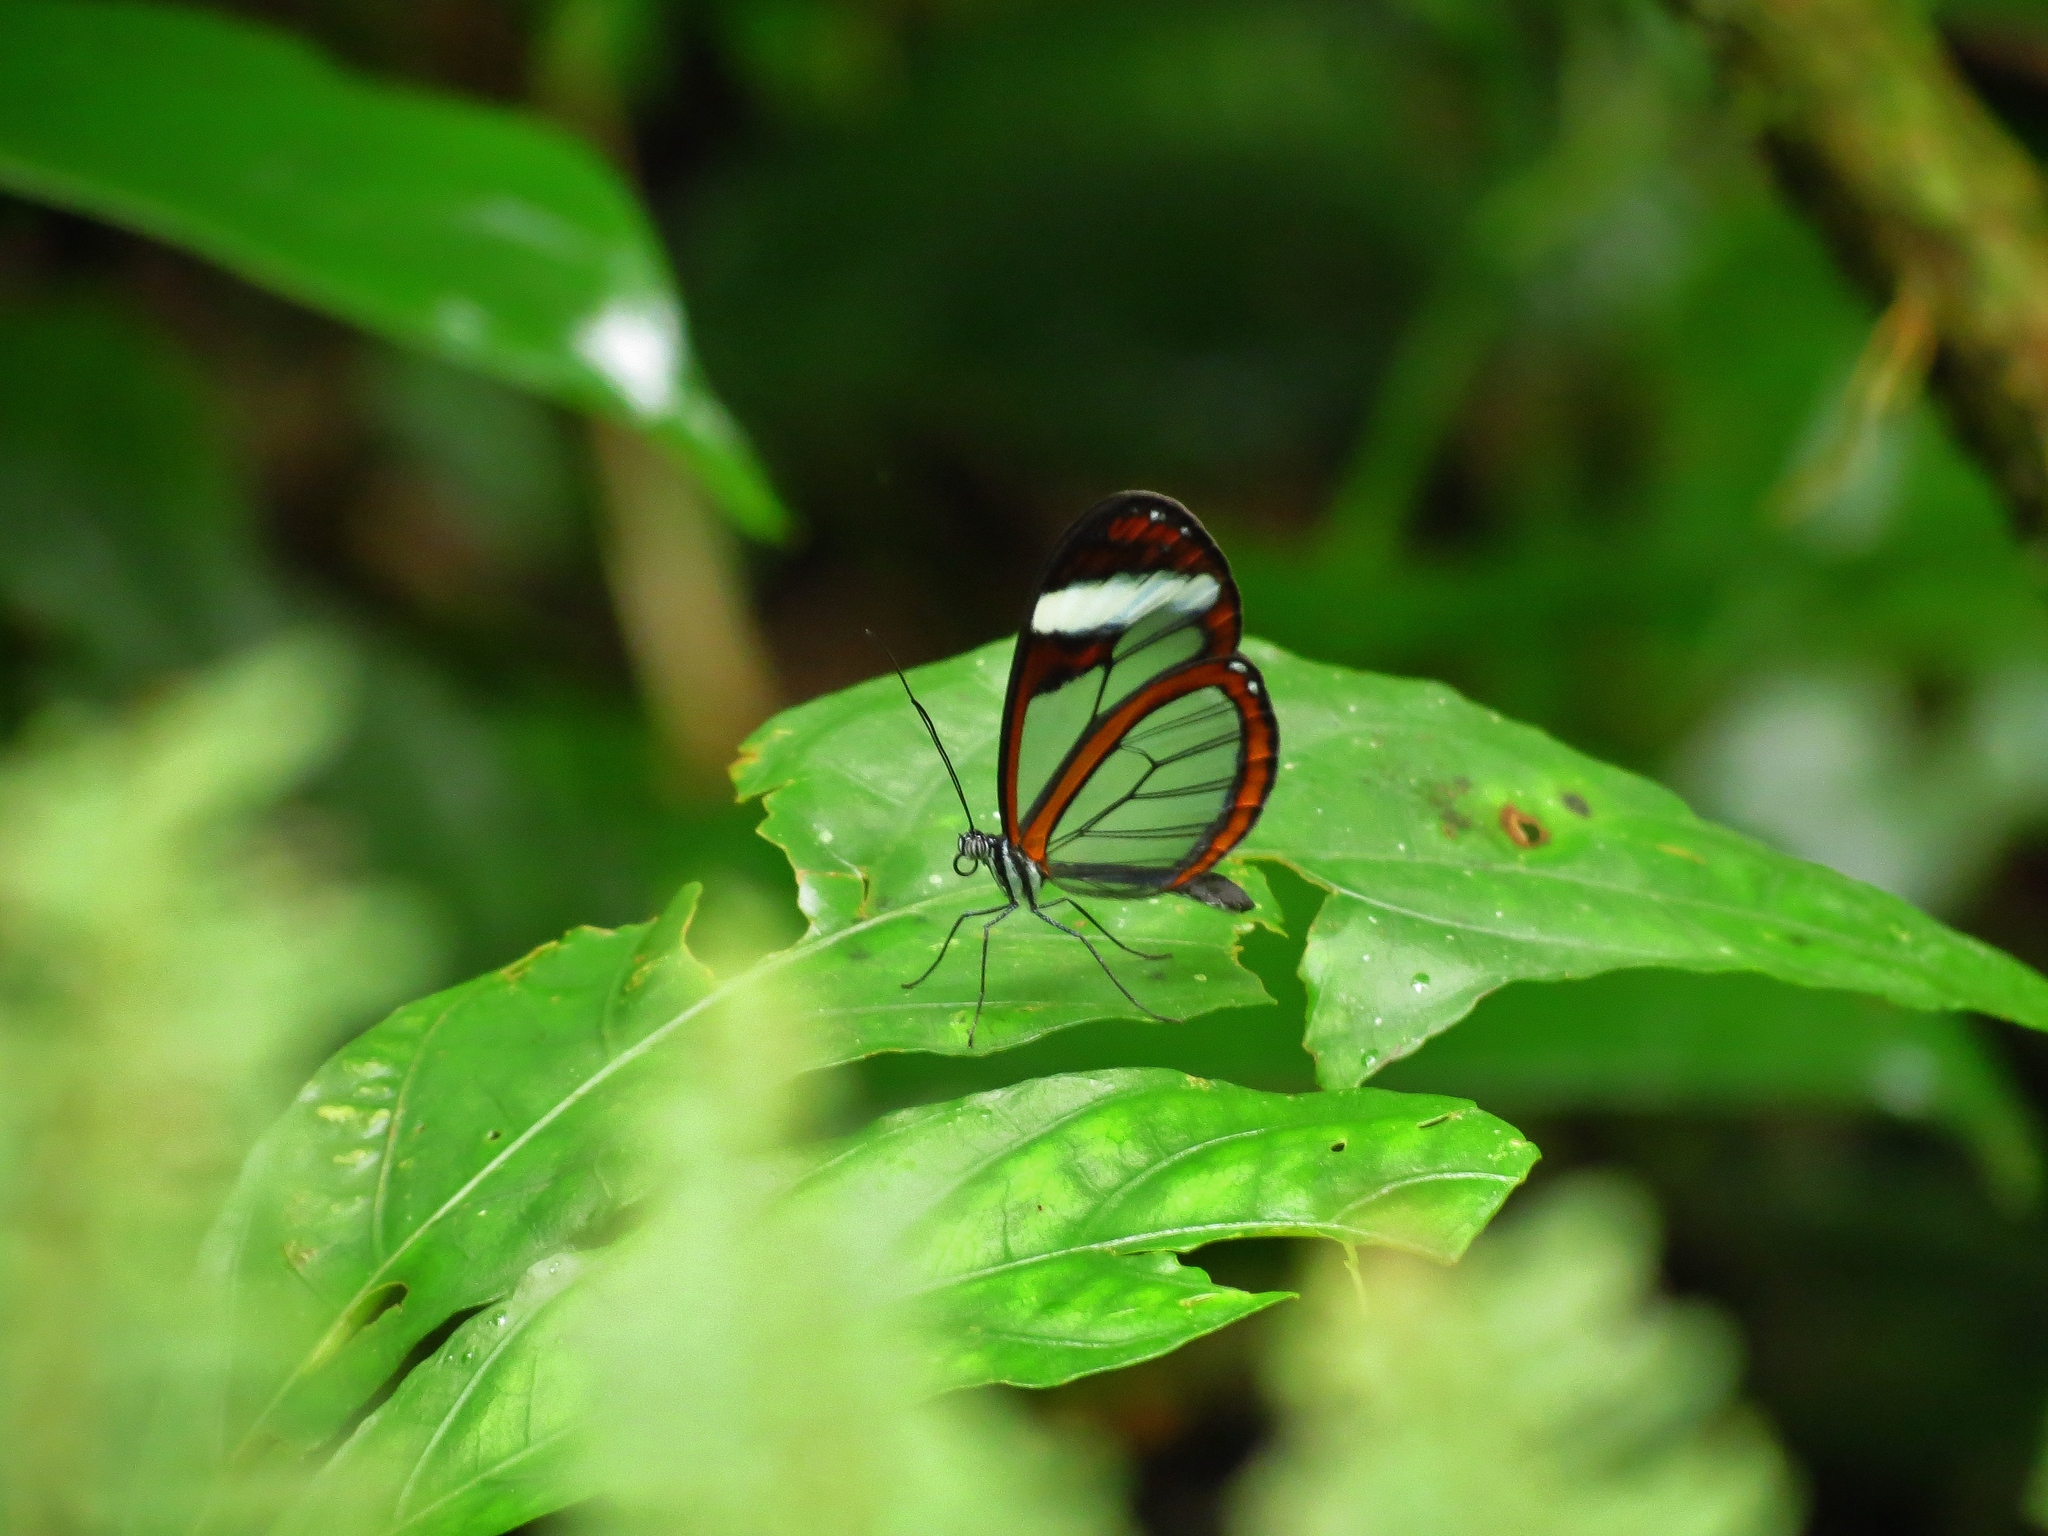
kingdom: Animalia
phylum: Arthropoda
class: Insecta
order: Lepidoptera
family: Nymphalidae
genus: Oleria
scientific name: Oleria paula
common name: Paula's clearwing
